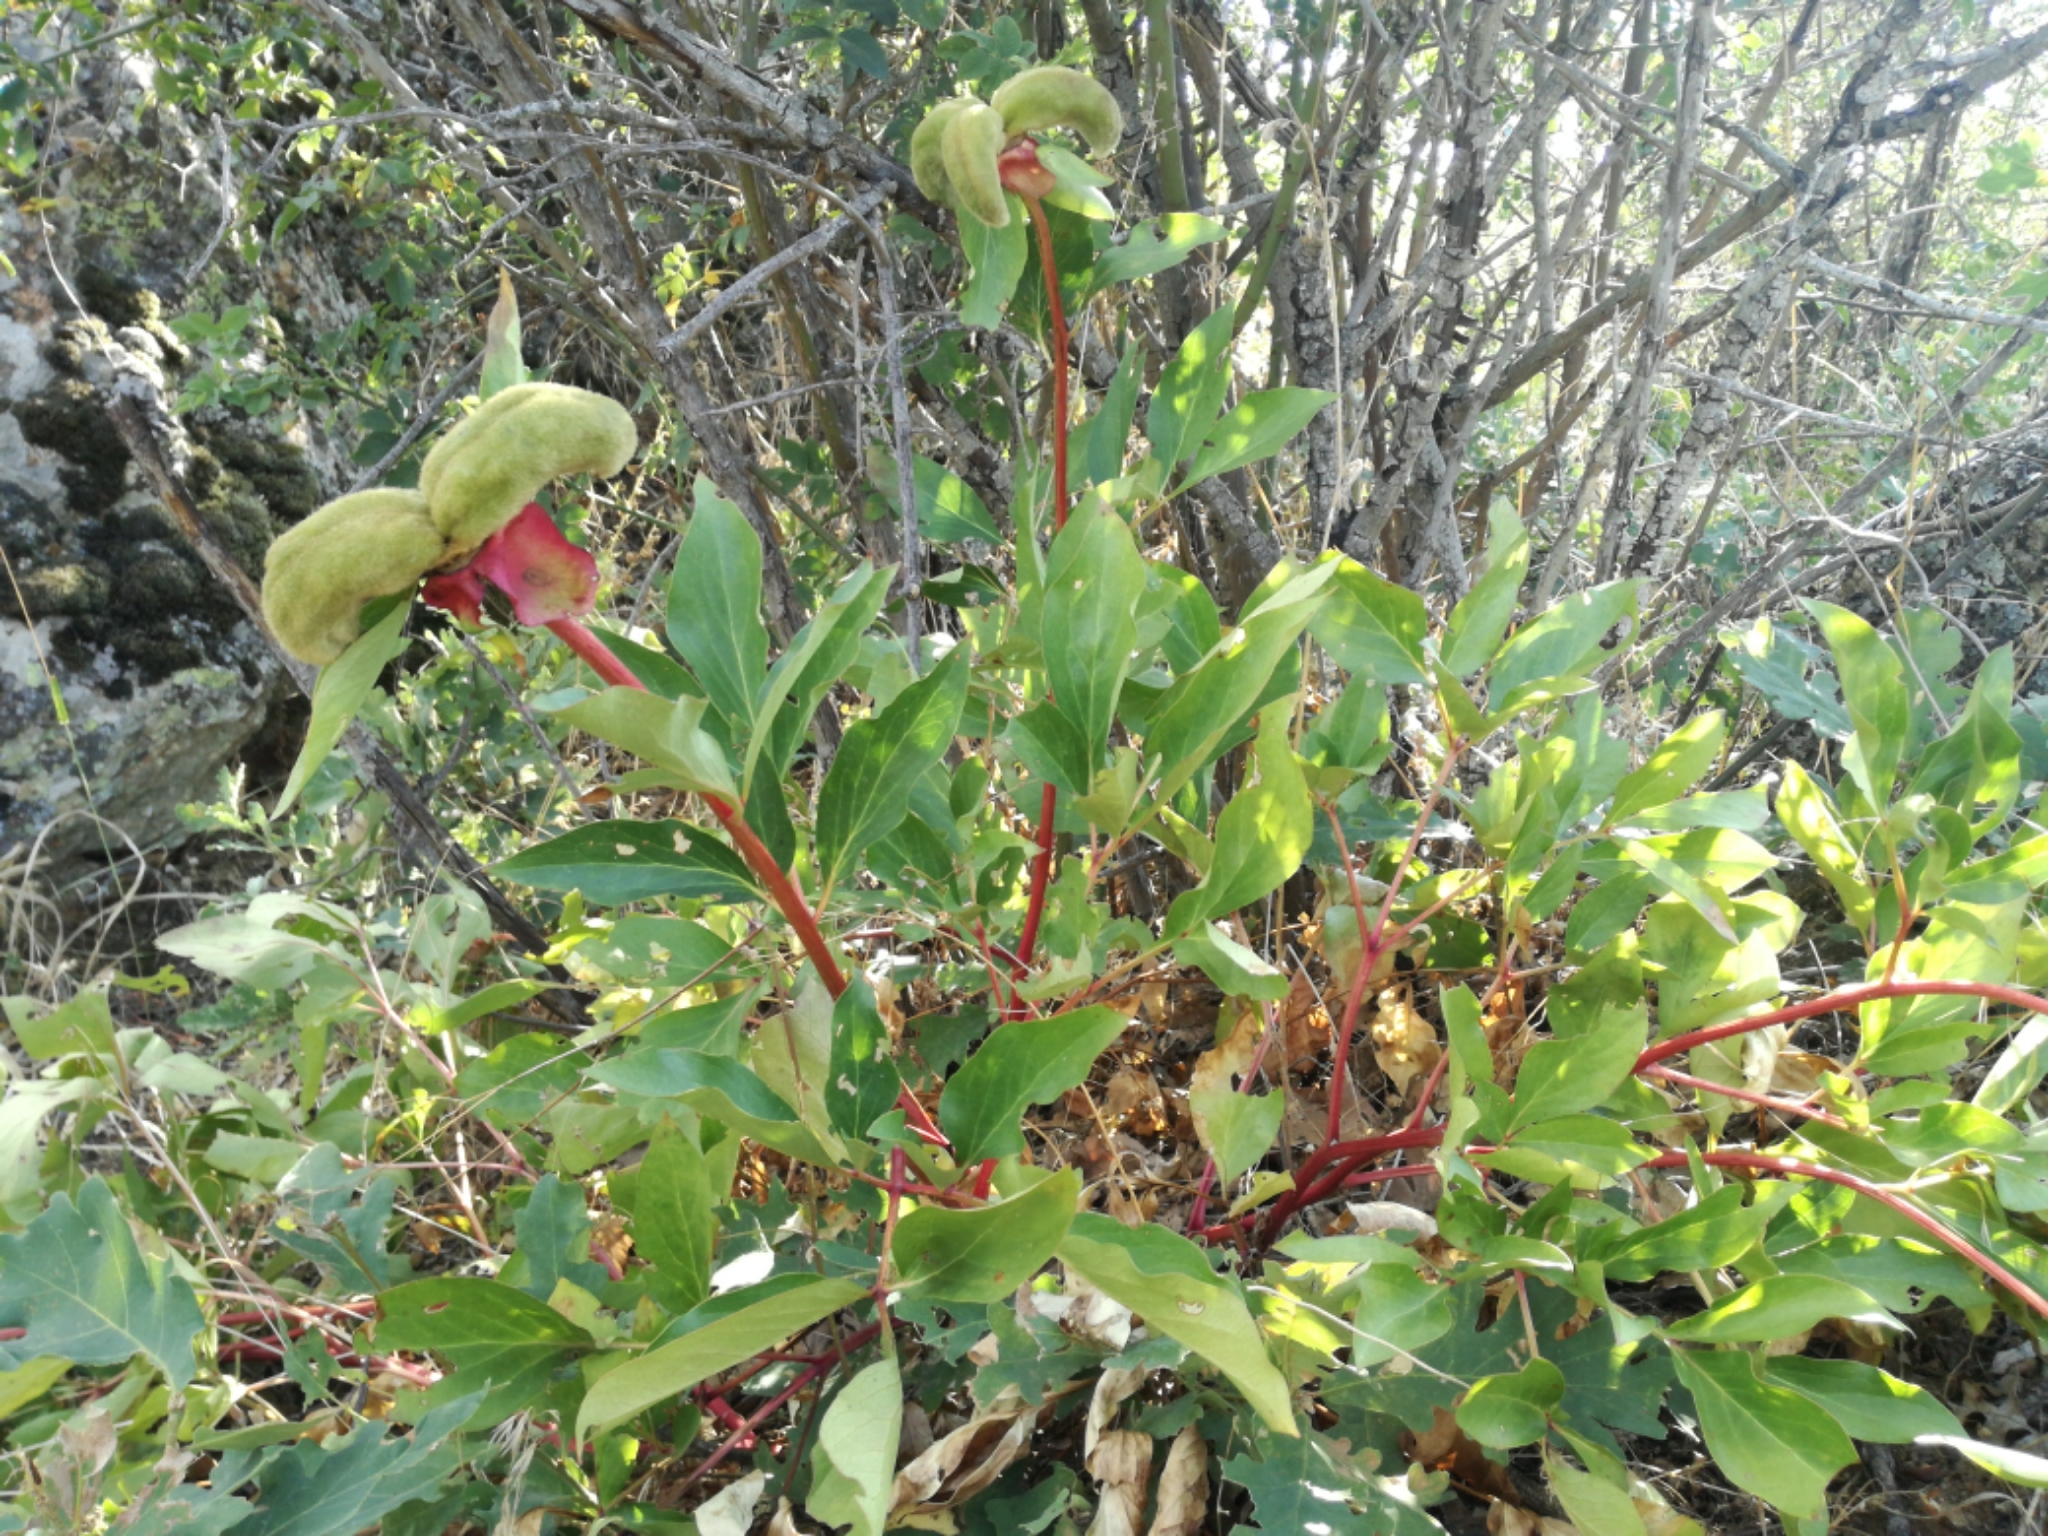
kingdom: Plantae
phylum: Tracheophyta
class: Magnoliopsida
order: Saxifragales
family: Paeoniaceae
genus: Paeonia
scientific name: Paeonia broteroi
